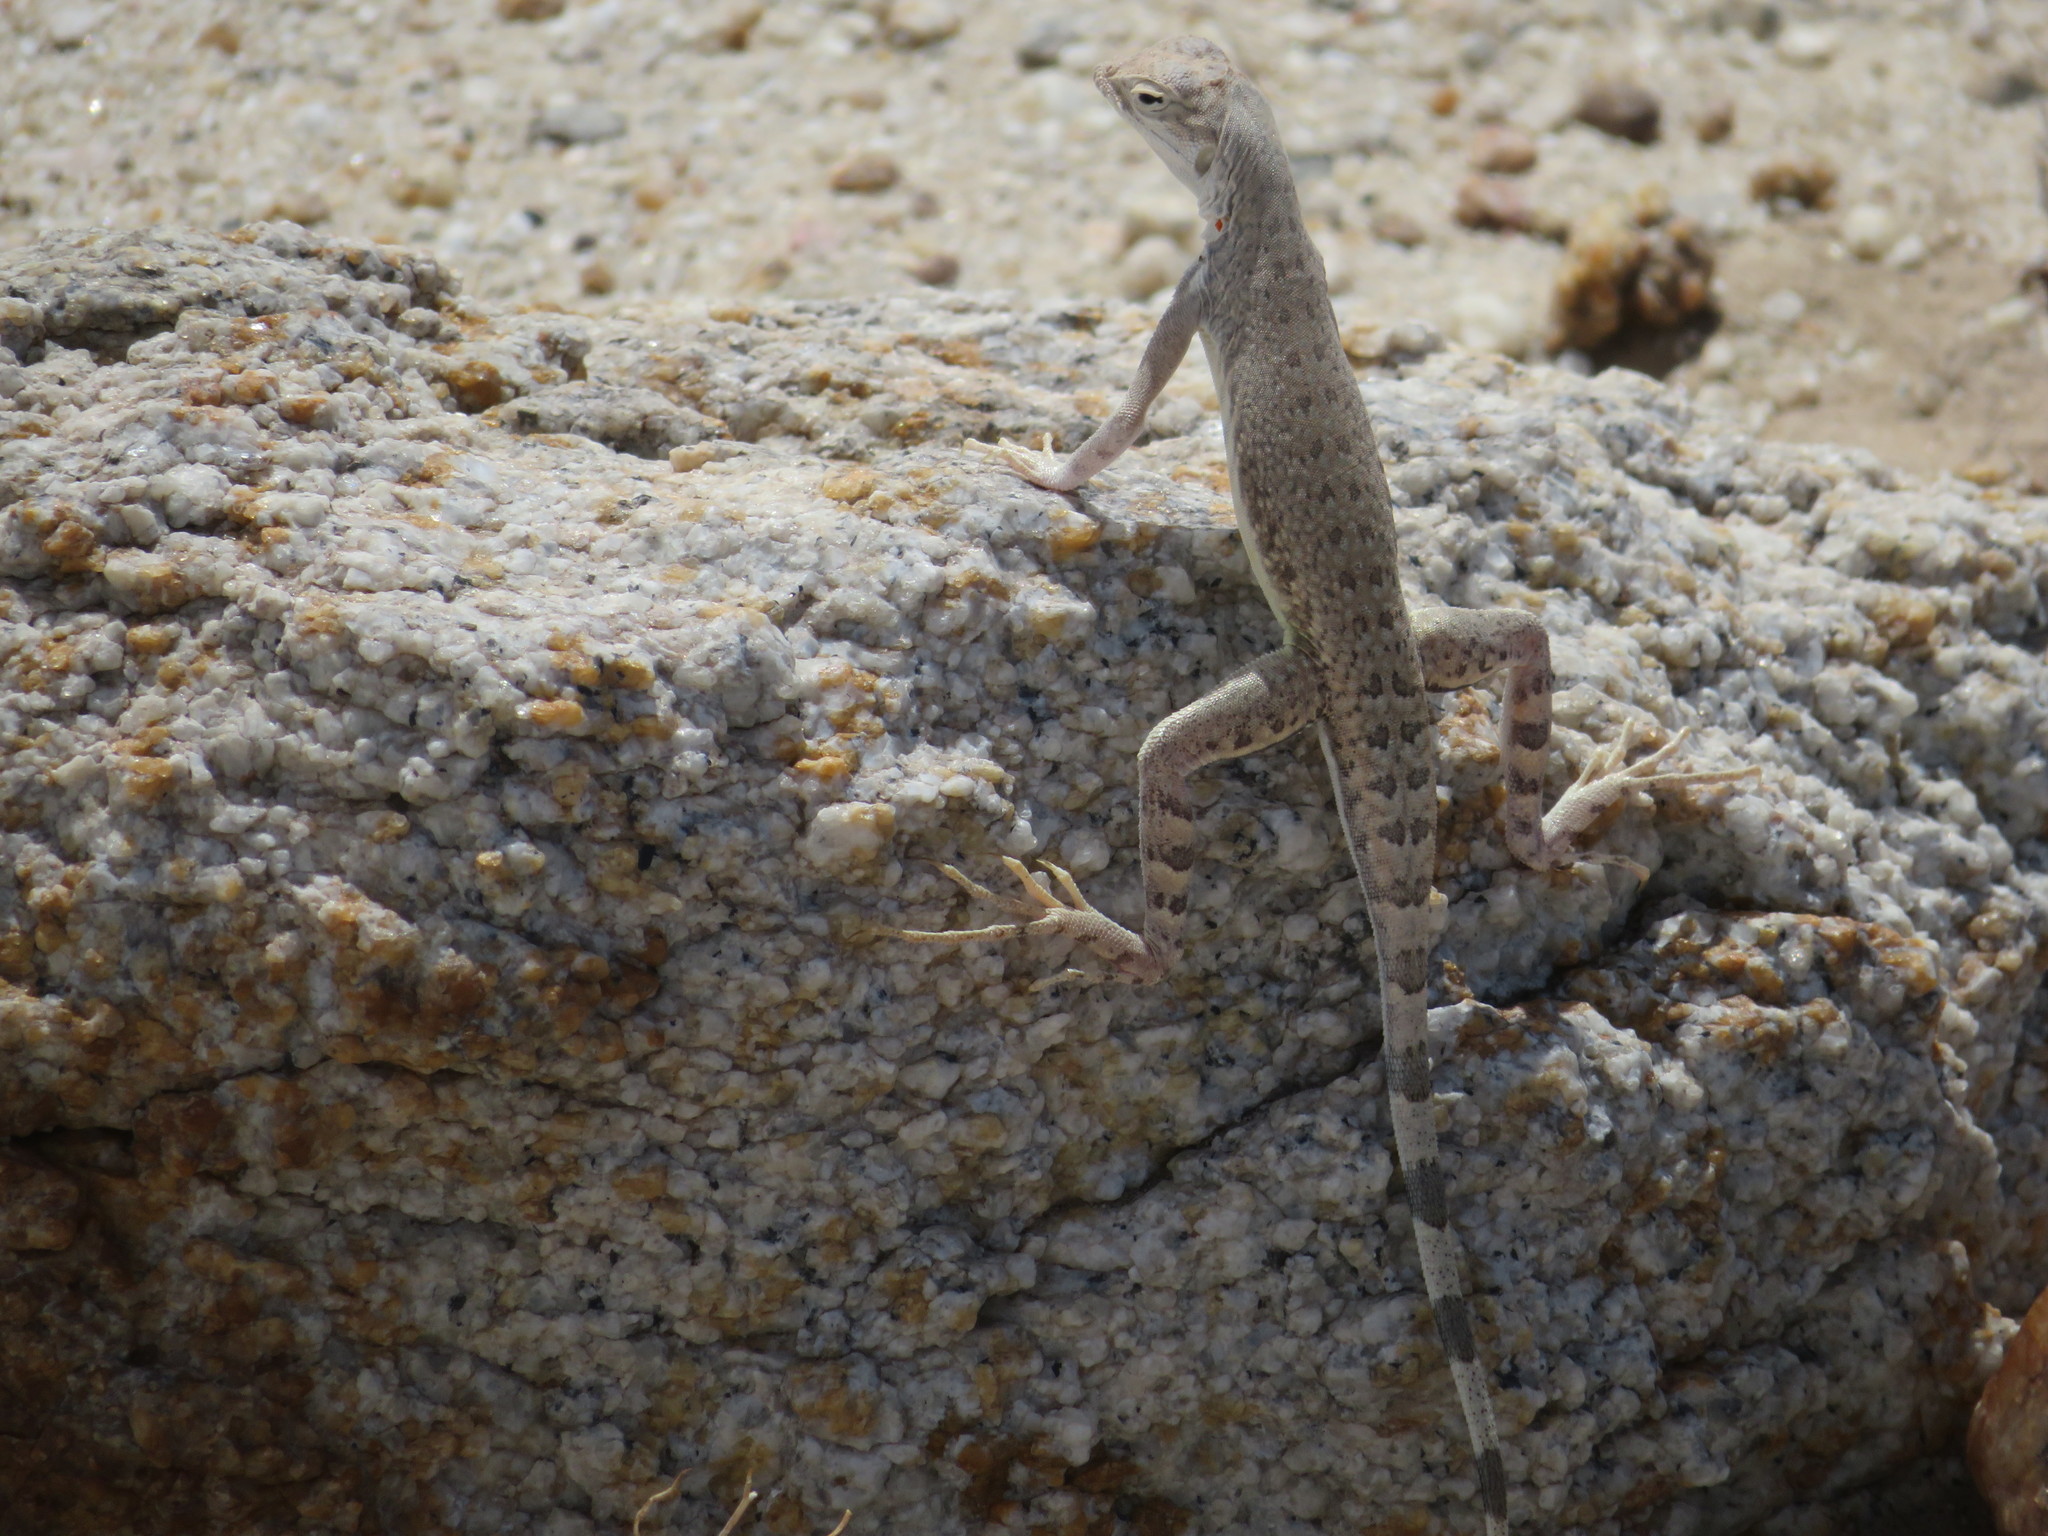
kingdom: Animalia
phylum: Chordata
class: Squamata
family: Phrynosomatidae
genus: Callisaurus
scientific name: Callisaurus draconoides
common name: Zebra-tailed lizard
